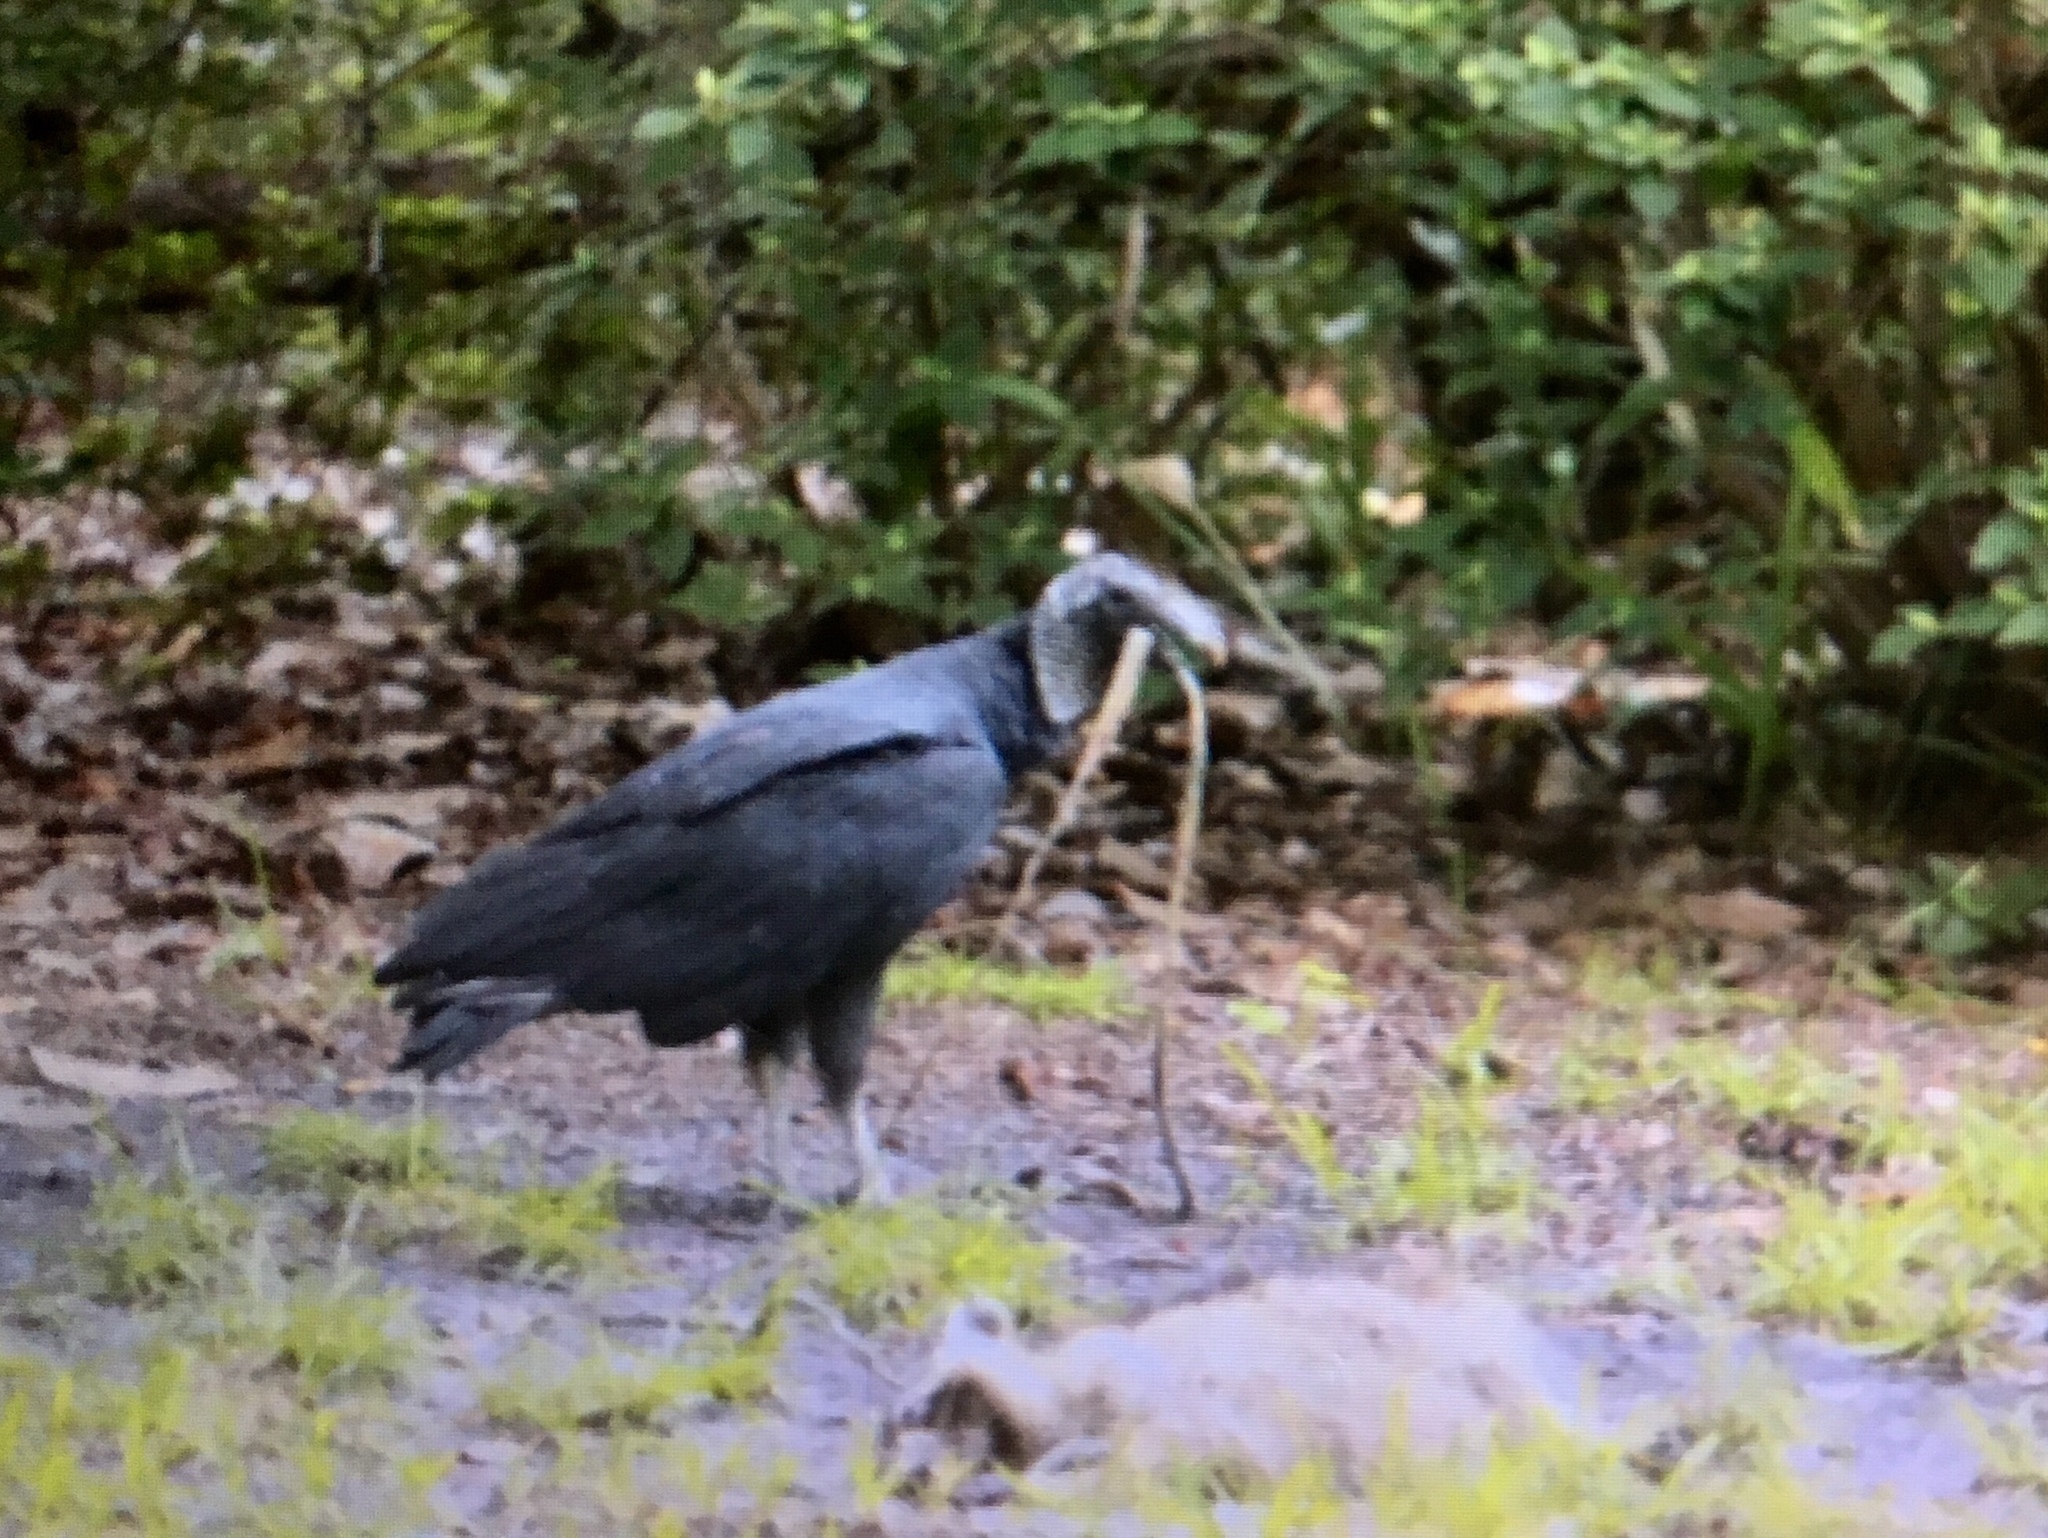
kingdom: Animalia
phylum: Chordata
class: Aves
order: Accipitriformes
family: Cathartidae
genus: Coragyps
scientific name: Coragyps atratus
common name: Black vulture
